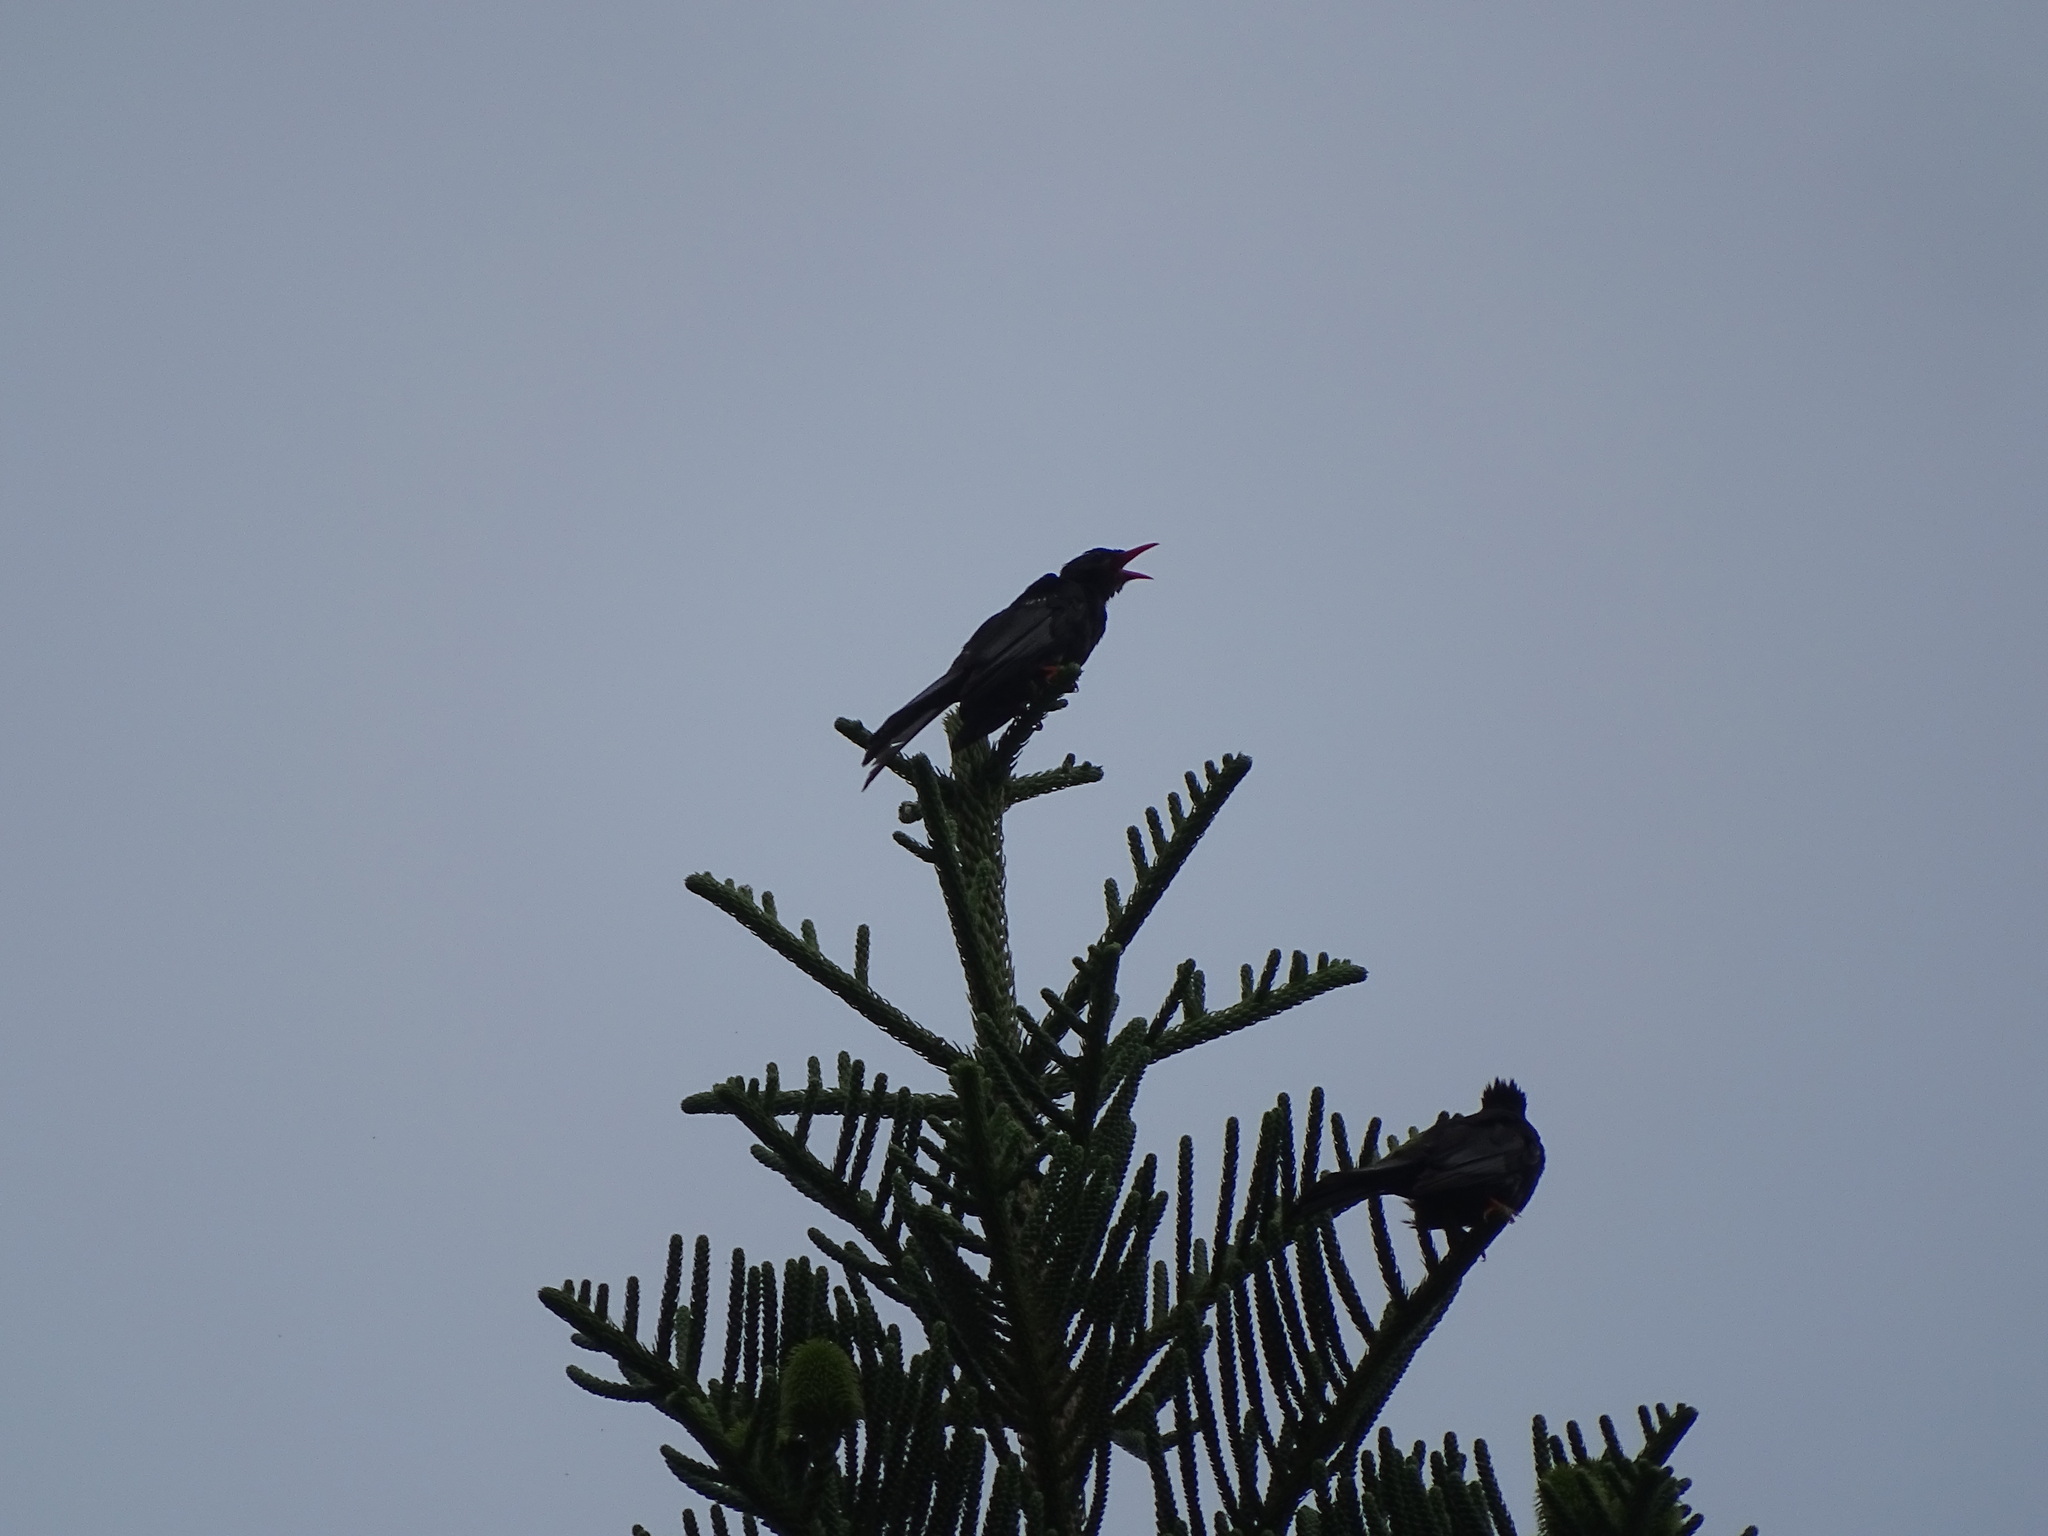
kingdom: Animalia
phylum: Chordata
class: Aves
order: Passeriformes
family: Pycnonotidae
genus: Hypsipetes
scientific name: Hypsipetes leucocephalus
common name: Black bulbul
